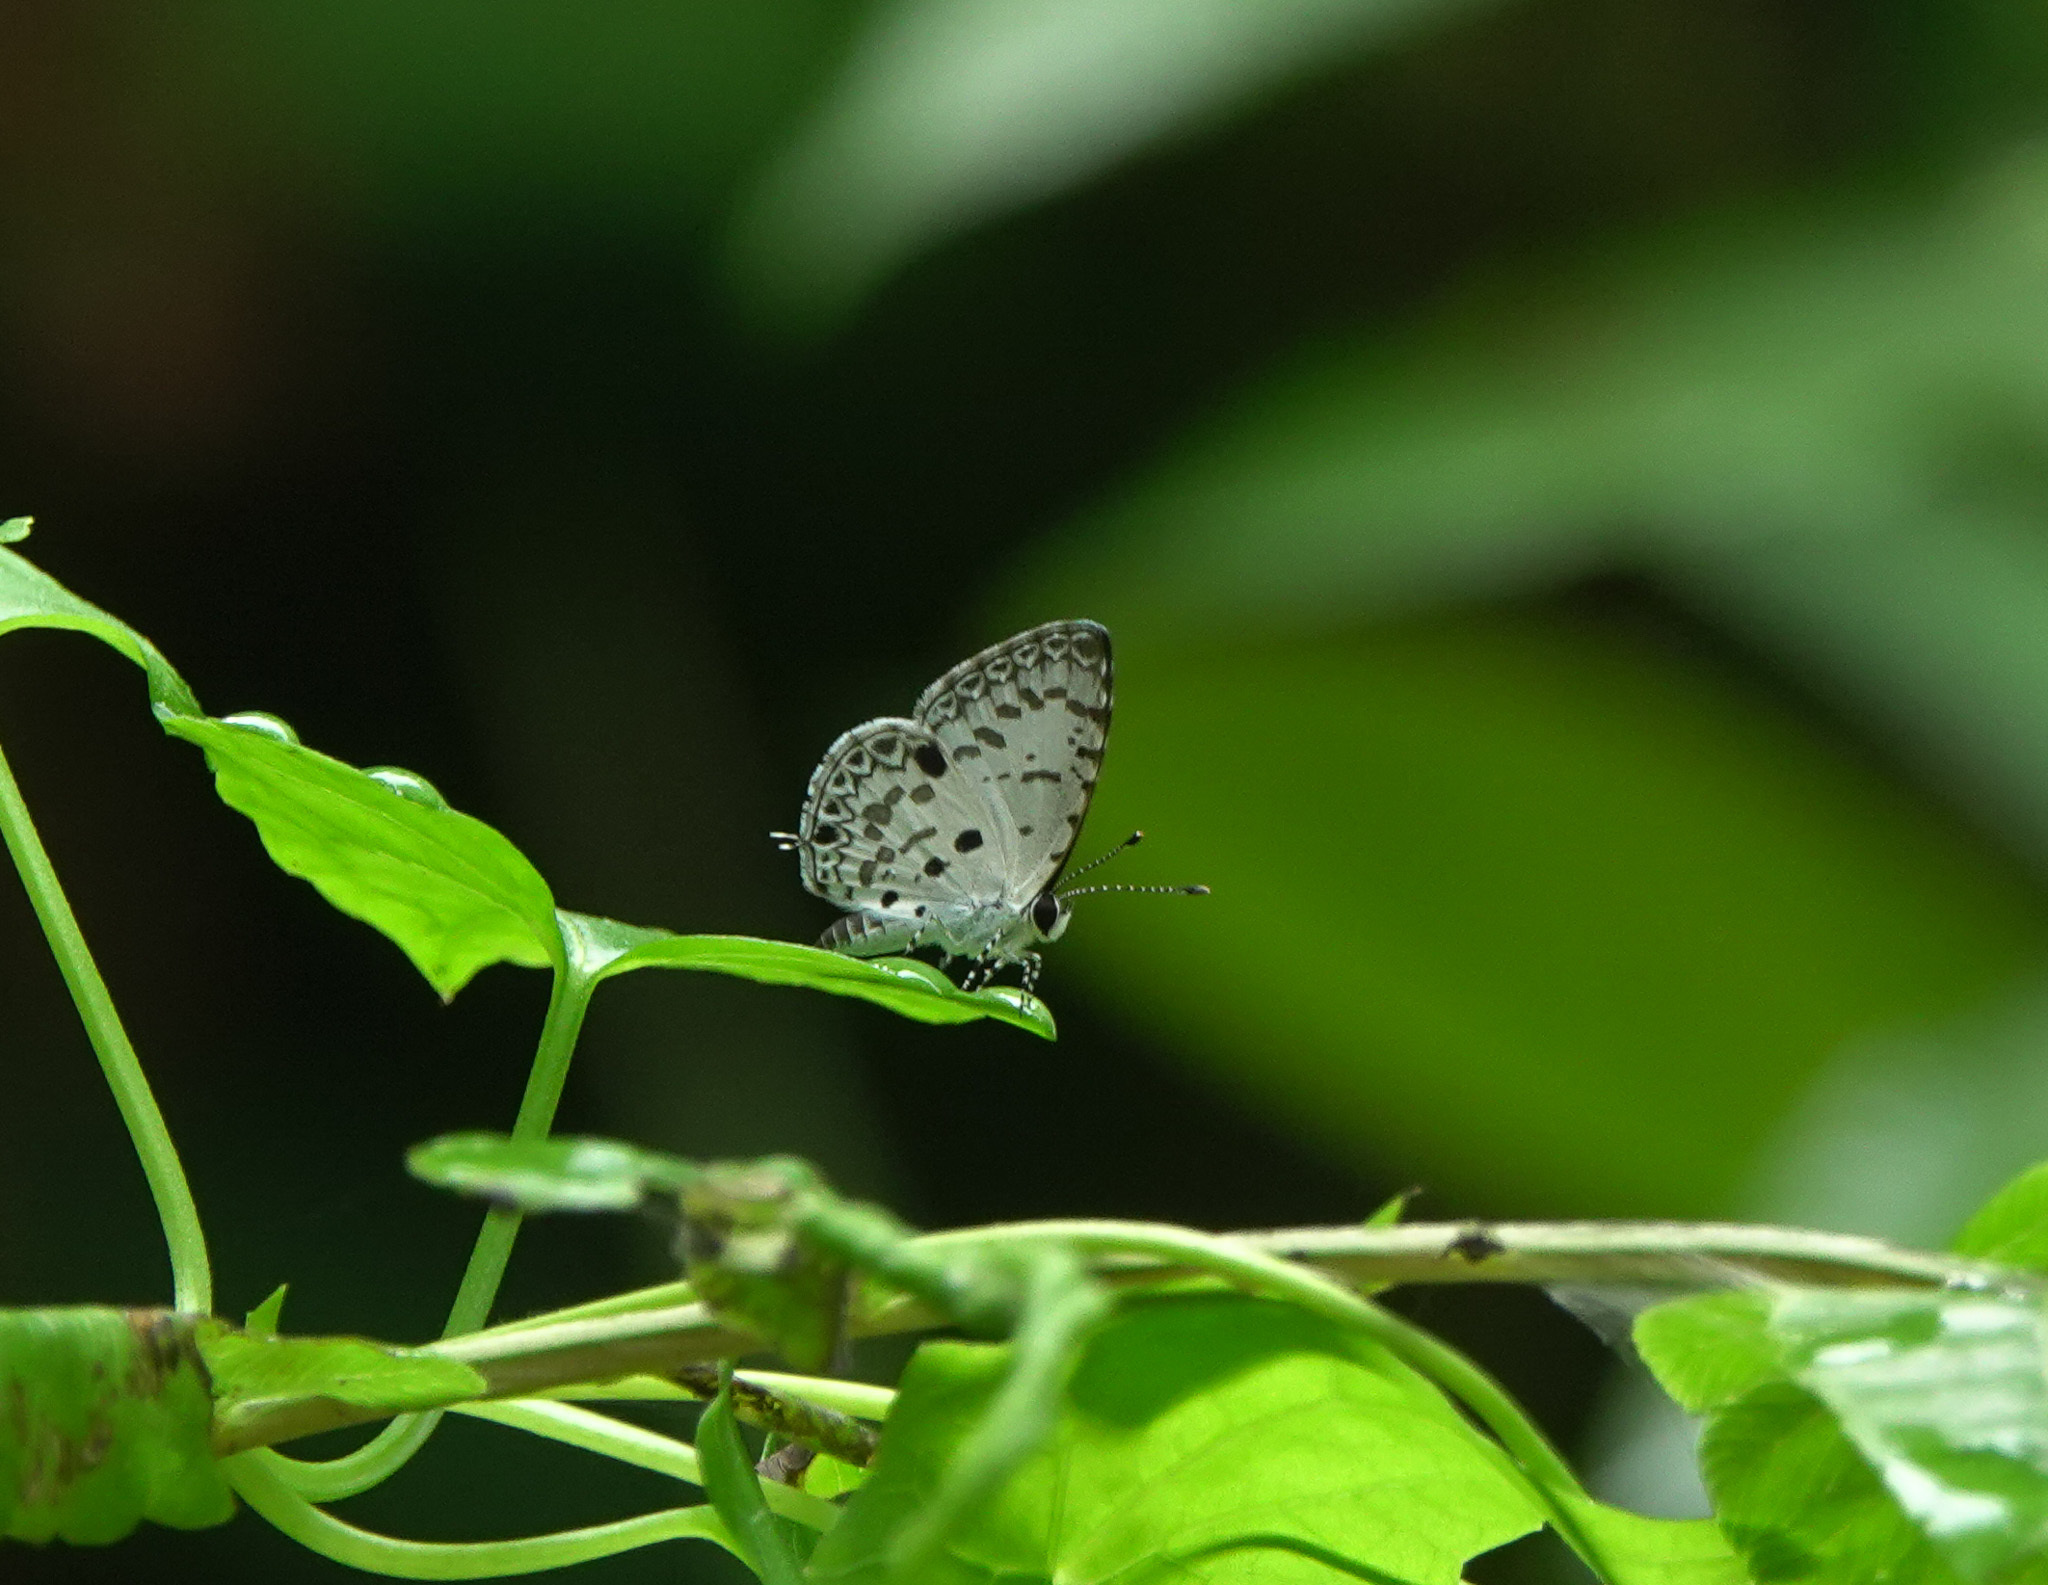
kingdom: Animalia
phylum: Arthropoda
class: Insecta
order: Lepidoptera
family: Lycaenidae
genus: Megisba
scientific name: Megisba malaya
